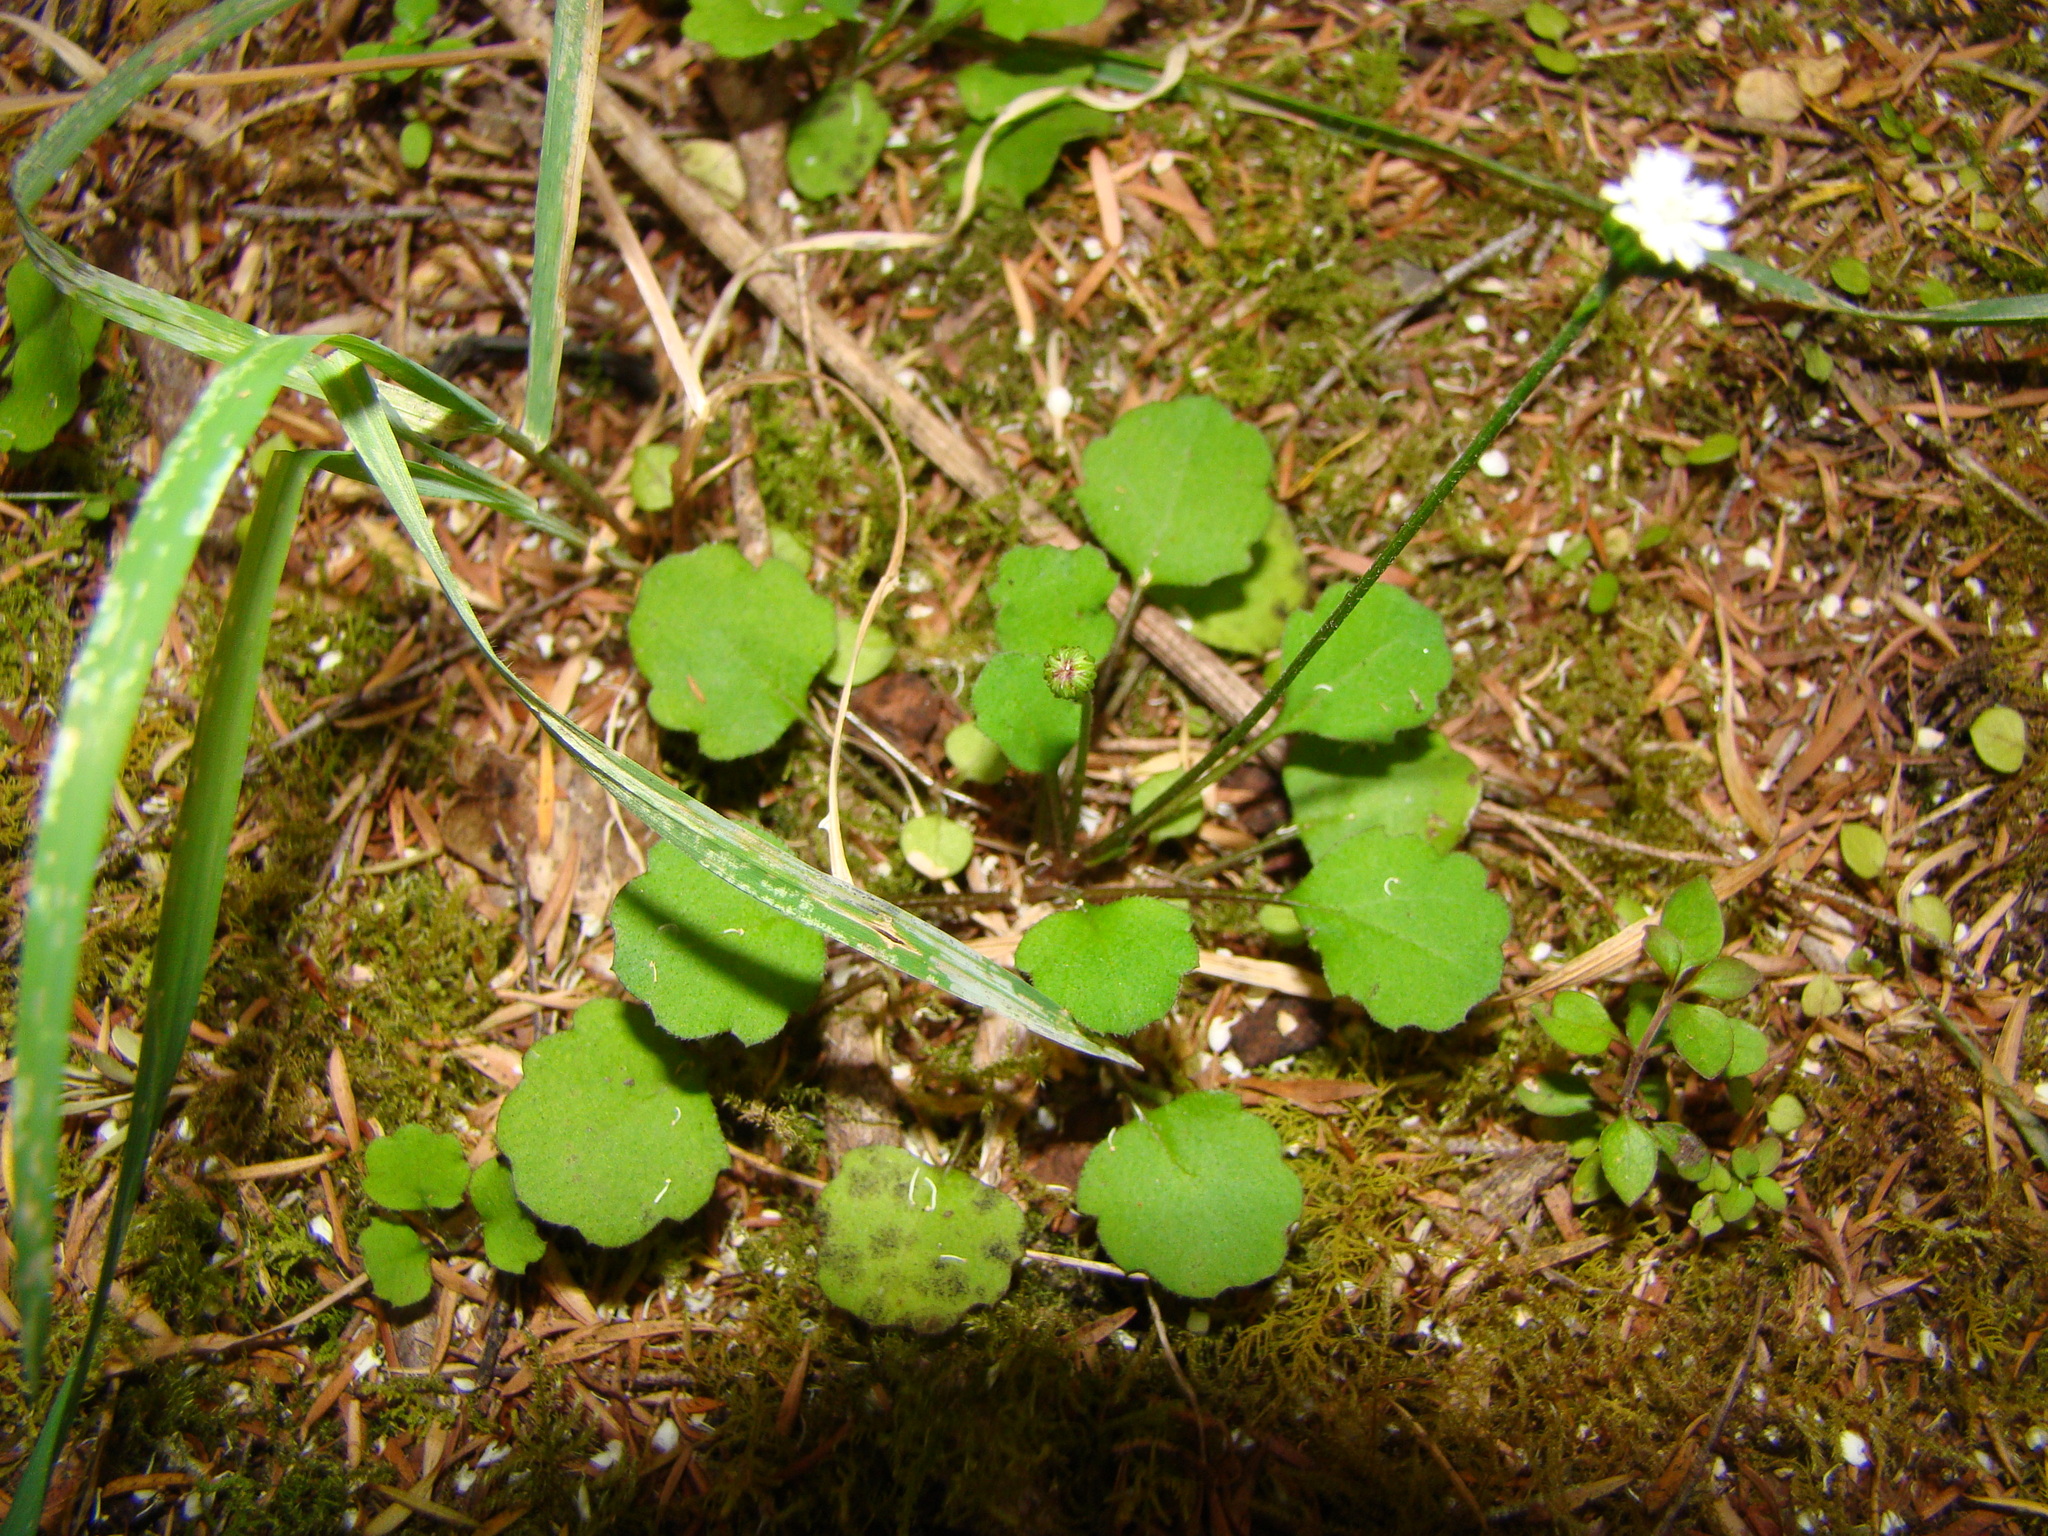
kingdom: Plantae
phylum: Tracheophyta
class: Magnoliopsida
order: Asterales
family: Asteraceae
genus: Lagenophora
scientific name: Lagenophora strangulata
